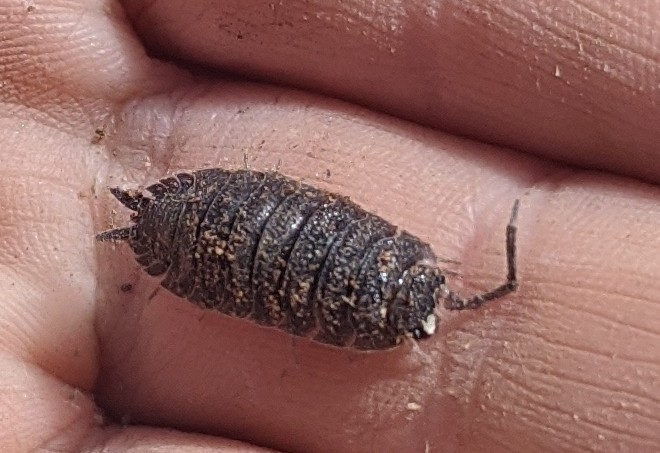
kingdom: Animalia
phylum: Arthropoda
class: Malacostraca
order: Isopoda
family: Porcellionidae
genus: Porcellio
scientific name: Porcellio scaber
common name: Common rough woodlouse
